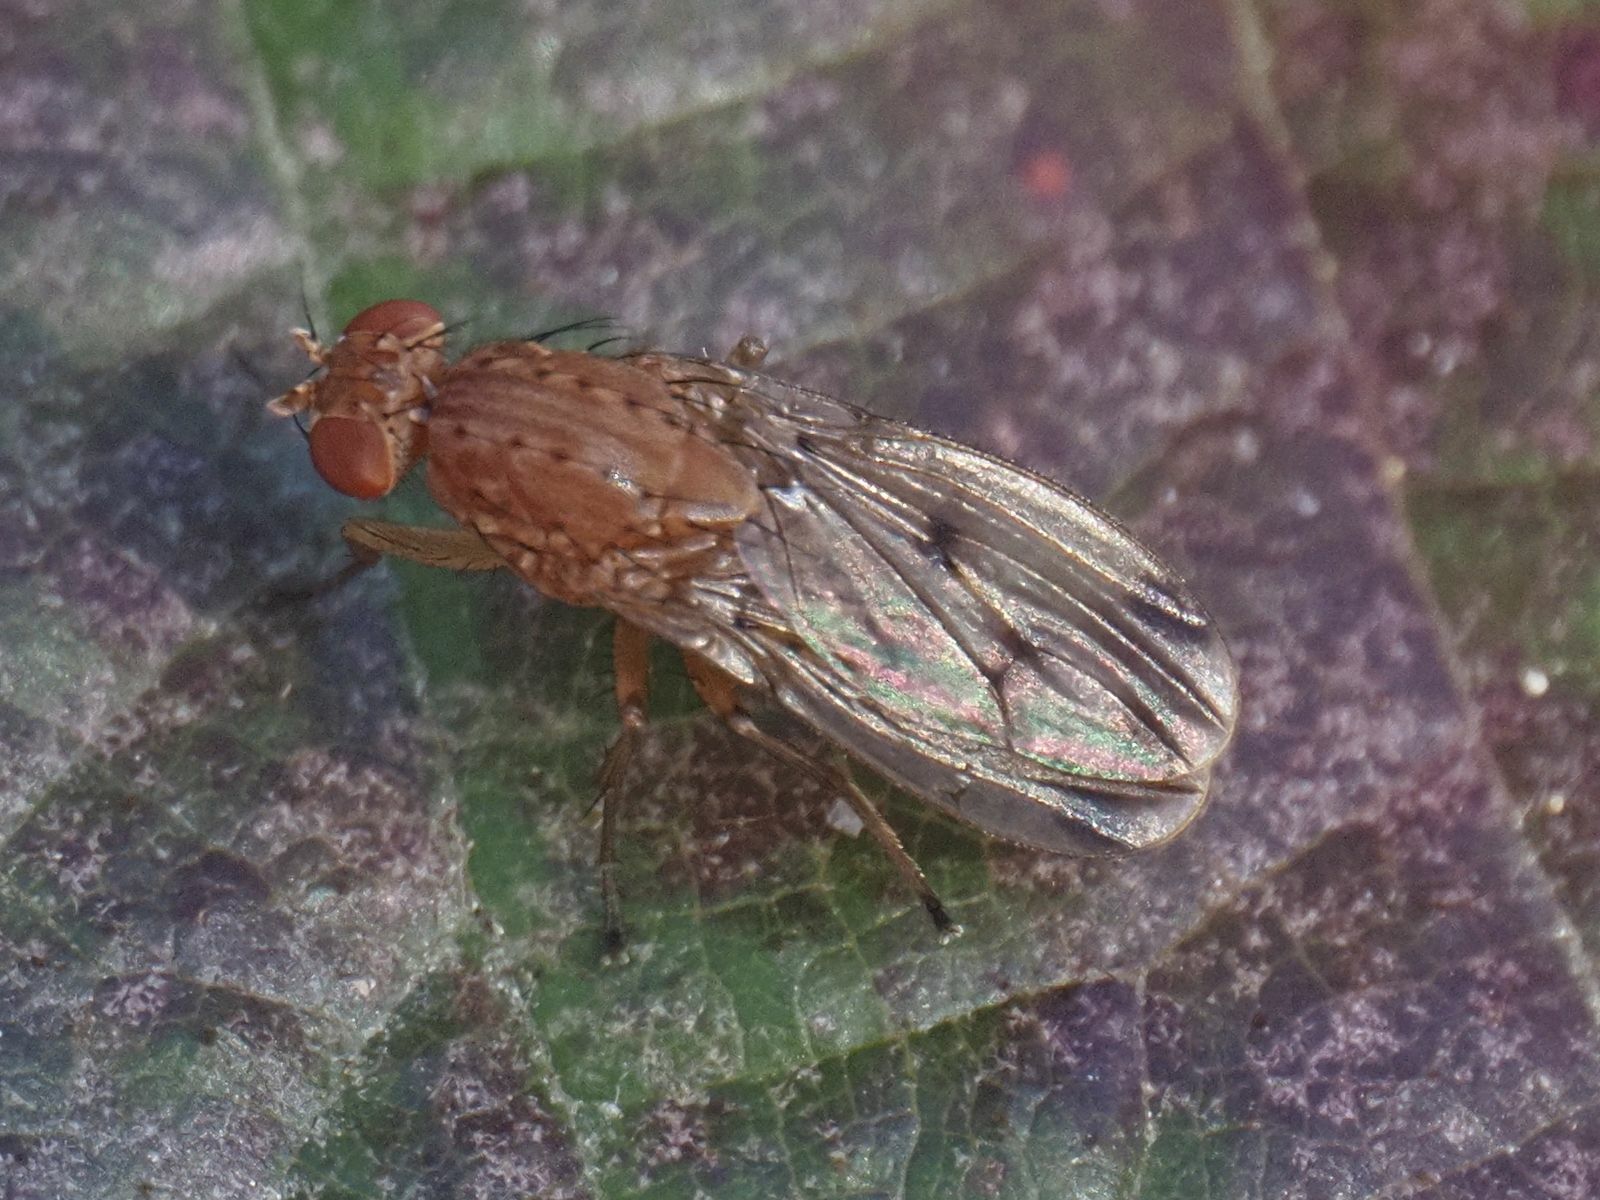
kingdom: Animalia
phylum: Arthropoda
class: Insecta
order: Diptera
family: Heleomyzidae
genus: Suillia
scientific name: Suillia variegata
